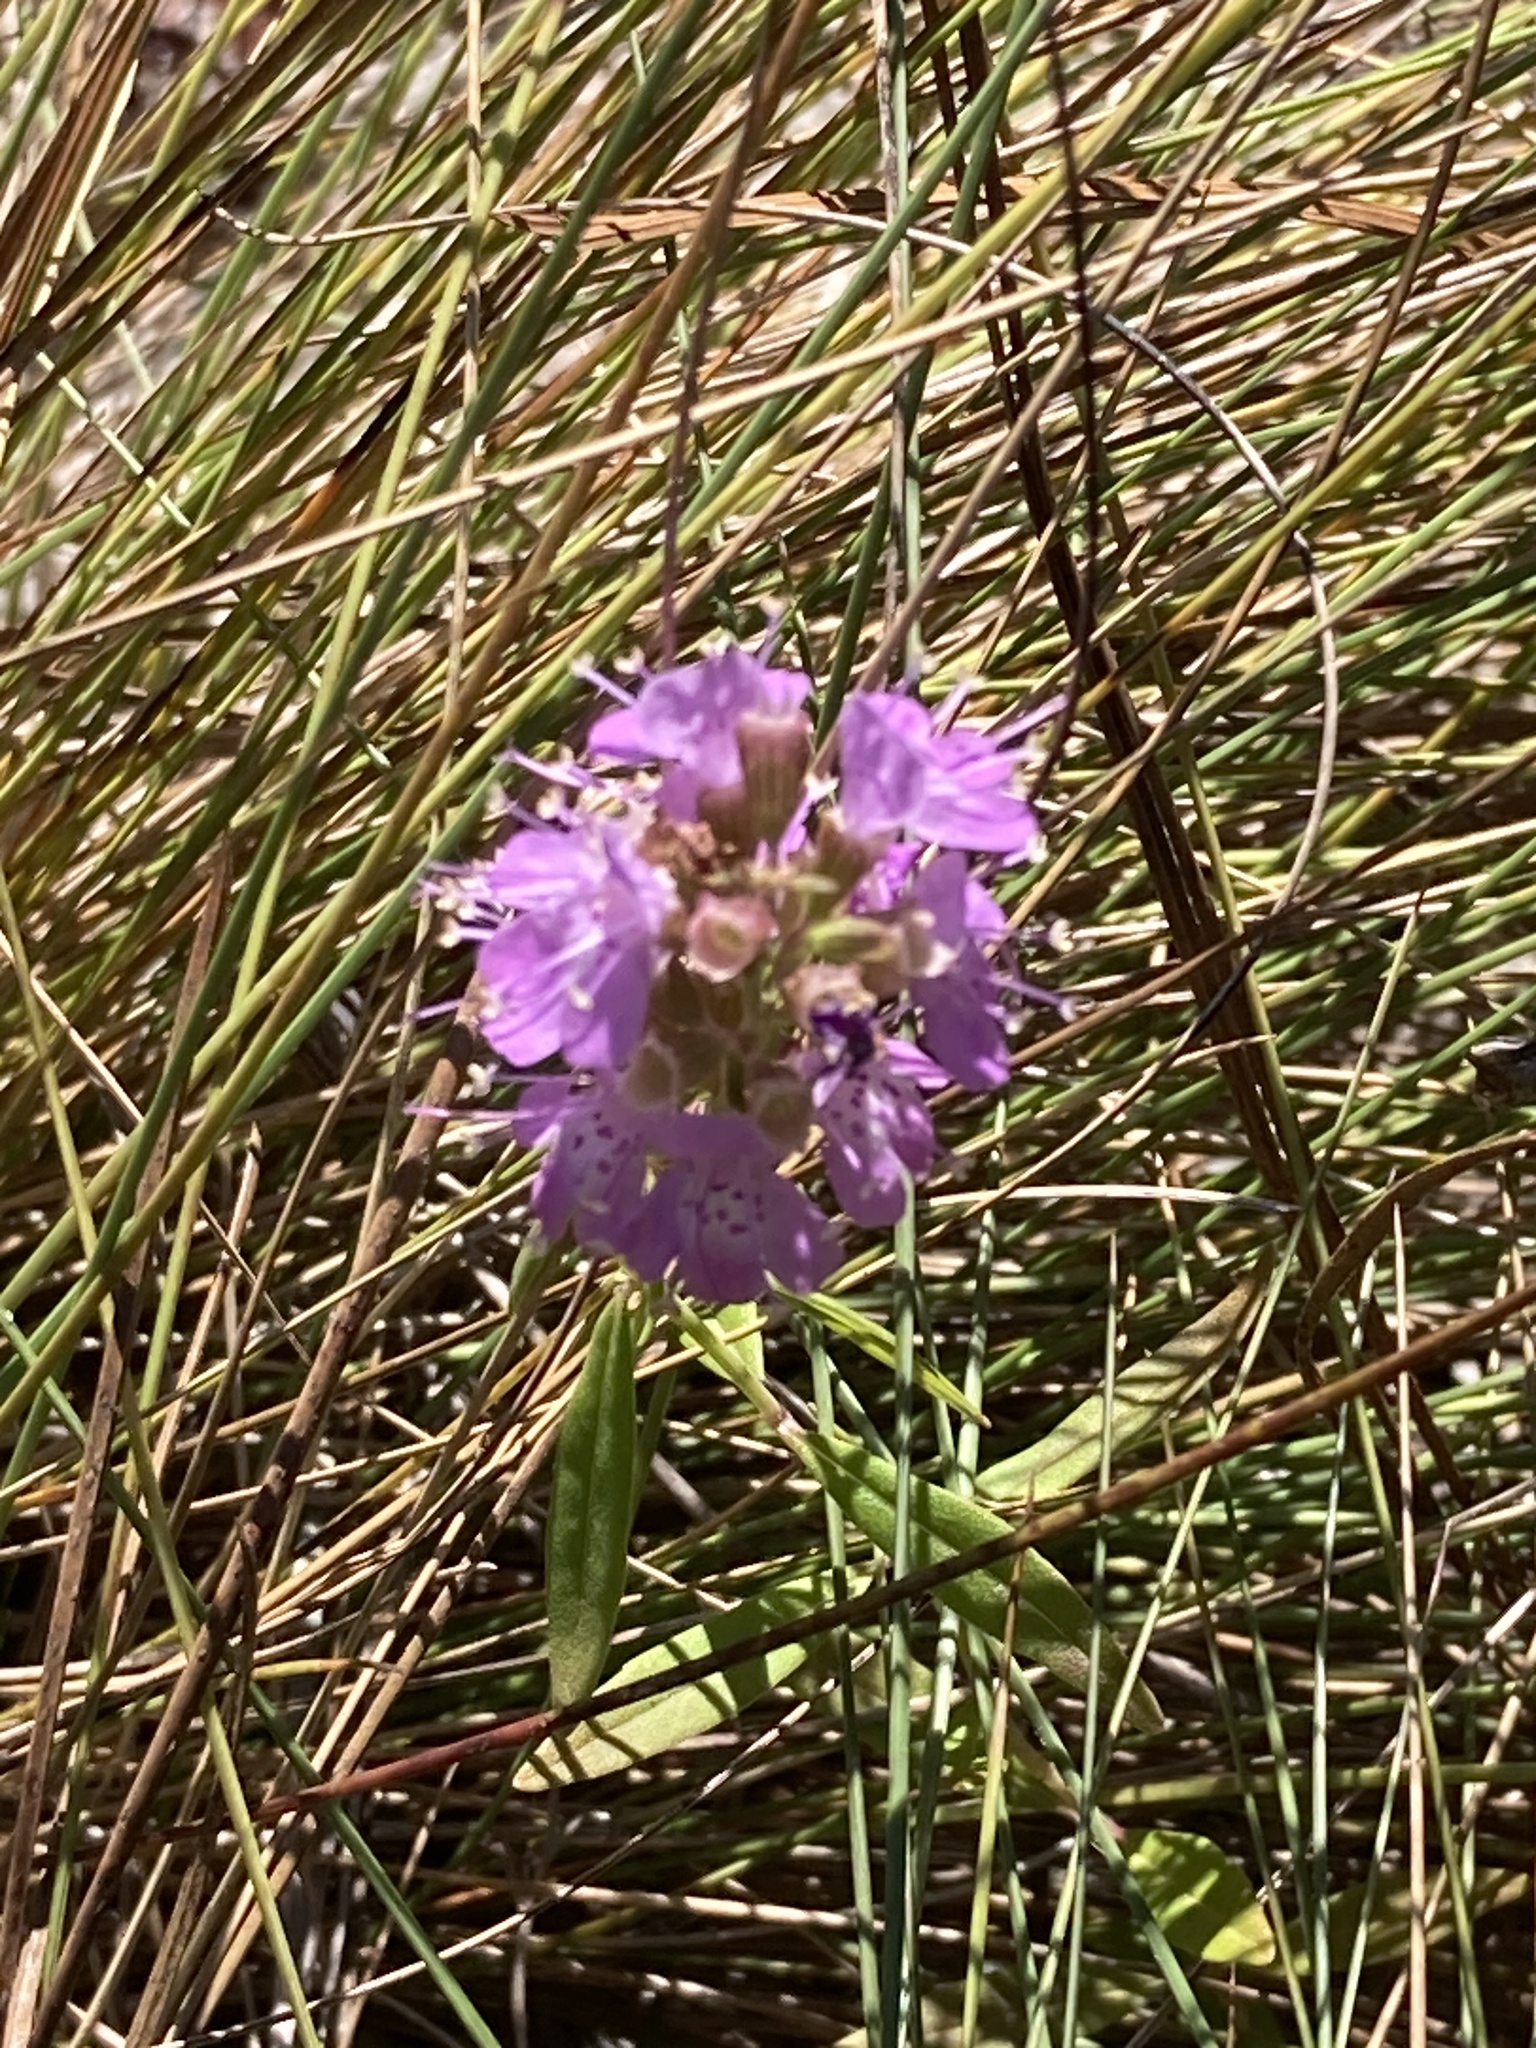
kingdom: Plantae
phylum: Tracheophyta
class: Magnoliopsida
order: Lamiales
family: Lamiaceae
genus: Dicerandra
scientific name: Dicerandra densiflora
